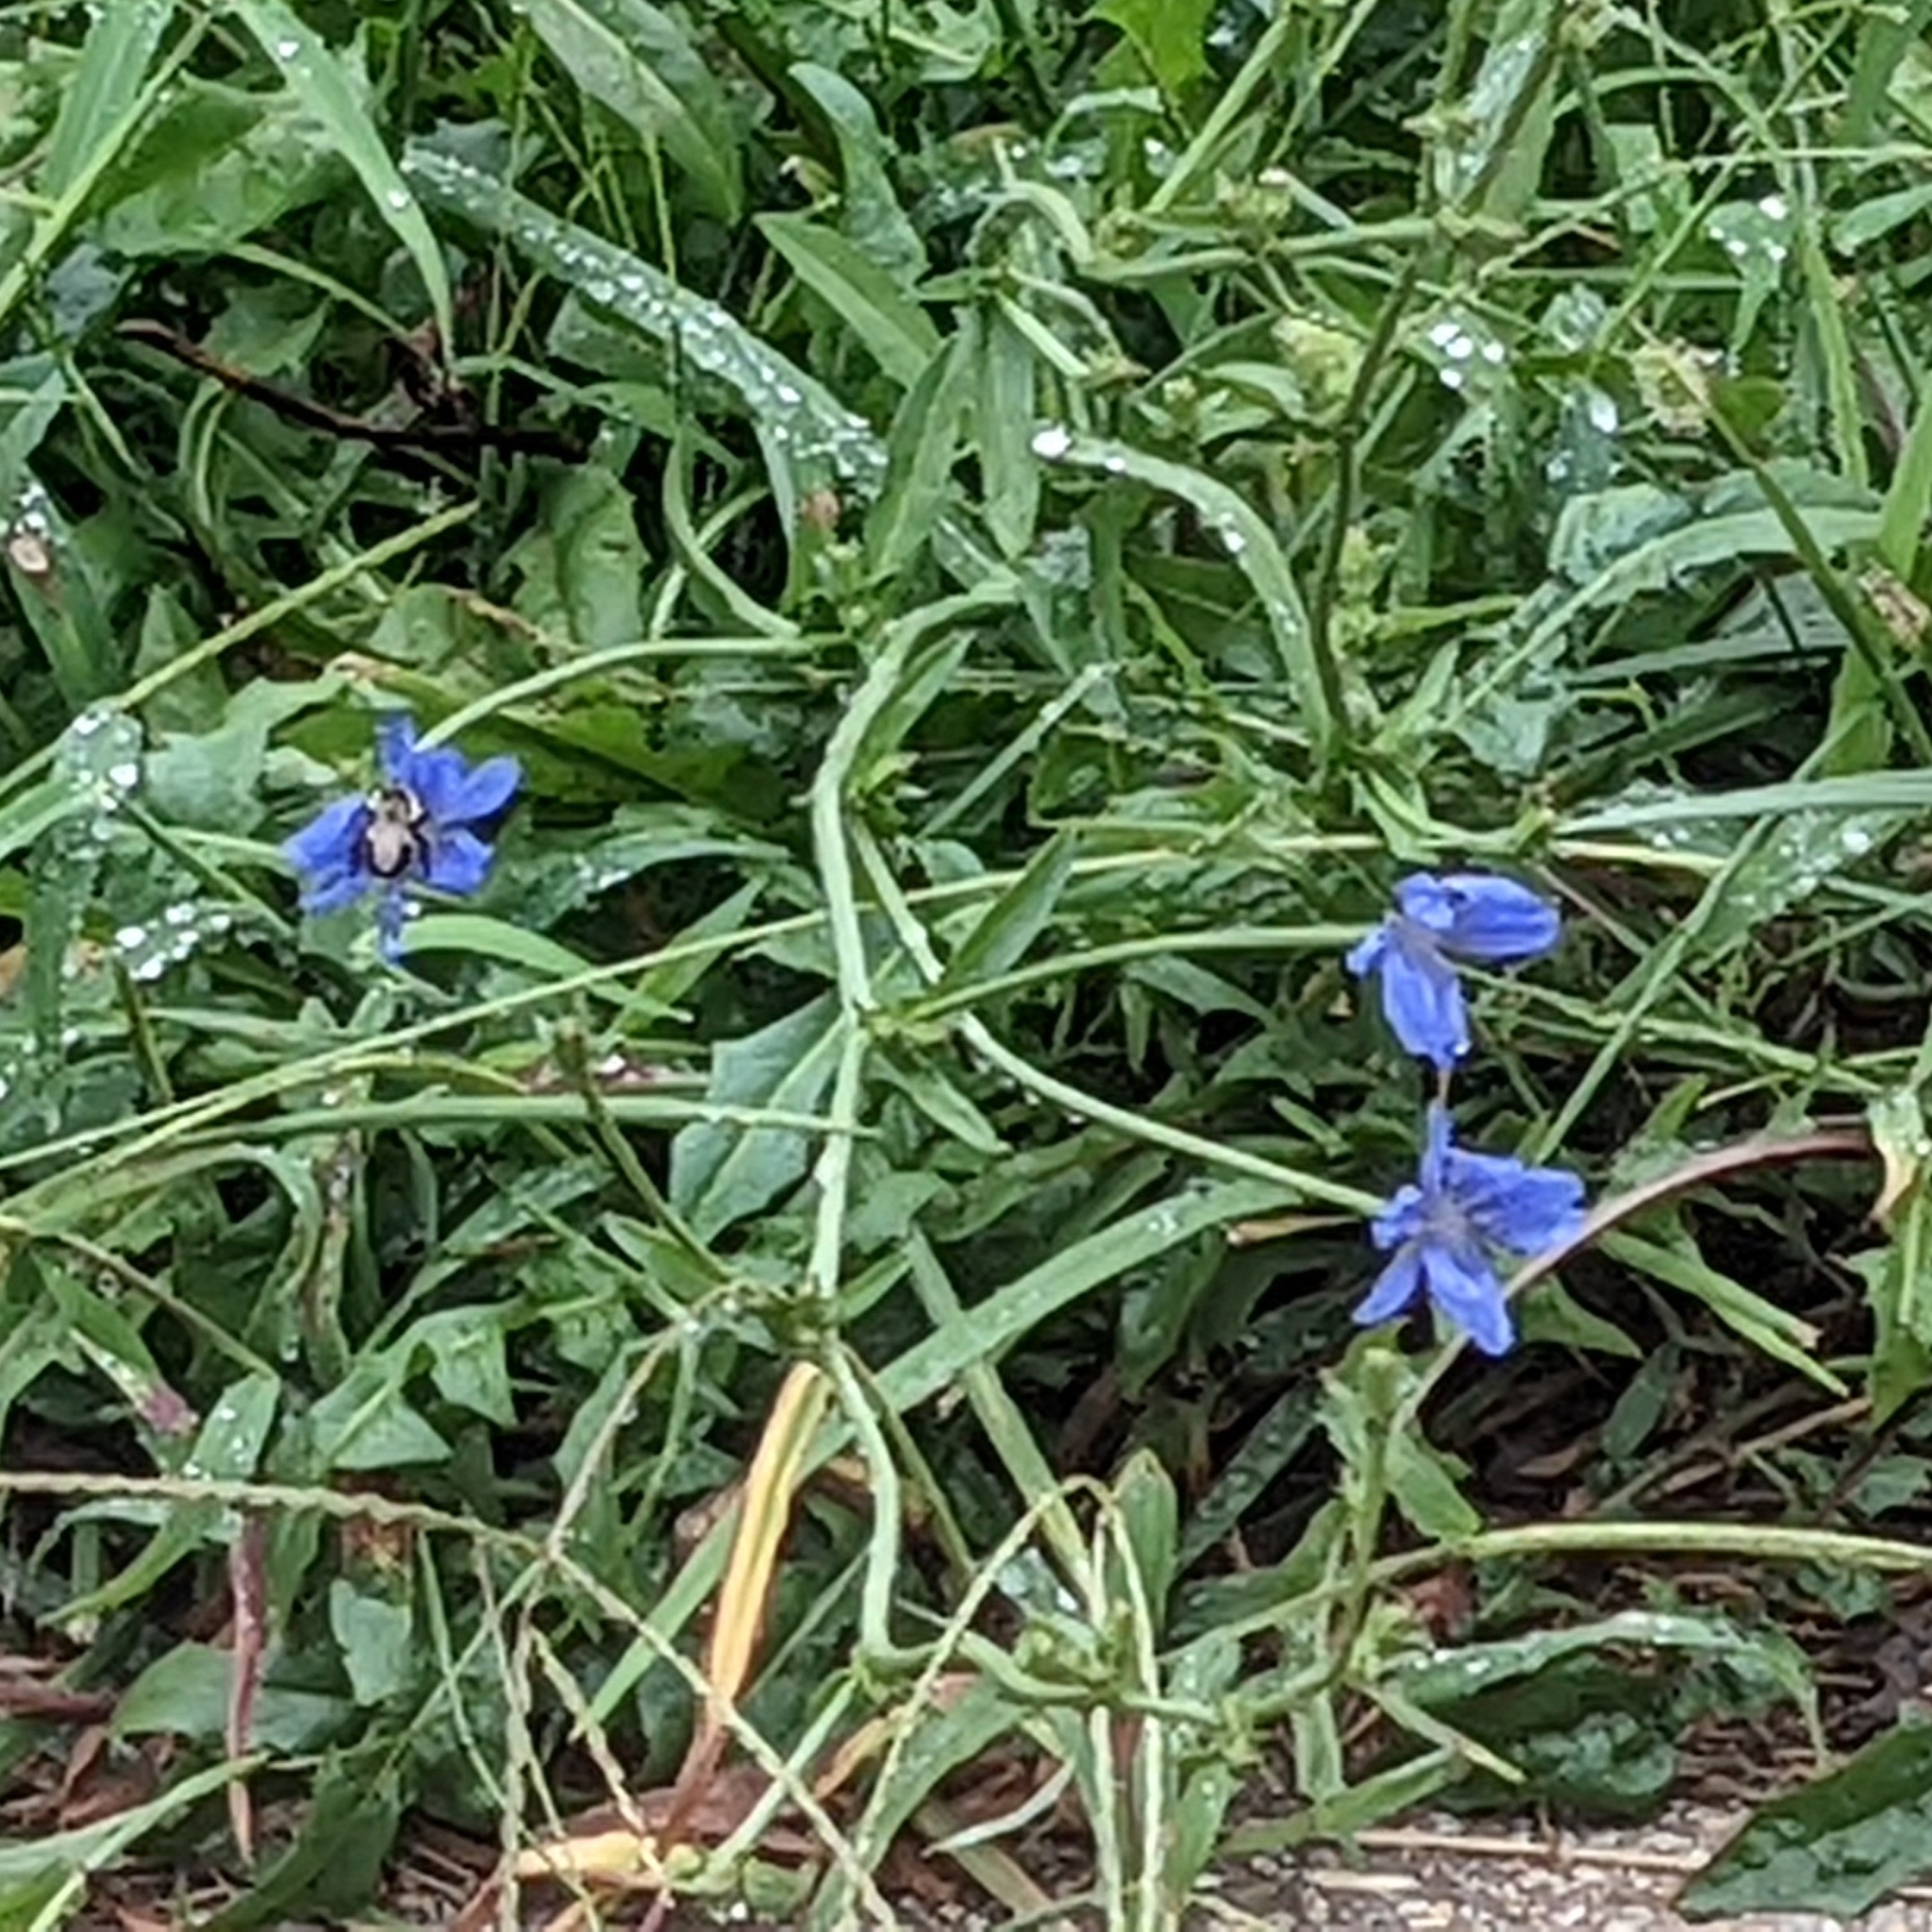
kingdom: Plantae
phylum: Tracheophyta
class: Magnoliopsida
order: Asterales
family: Asteraceae
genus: Cichorium
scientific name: Cichorium intybus
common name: Chicory
